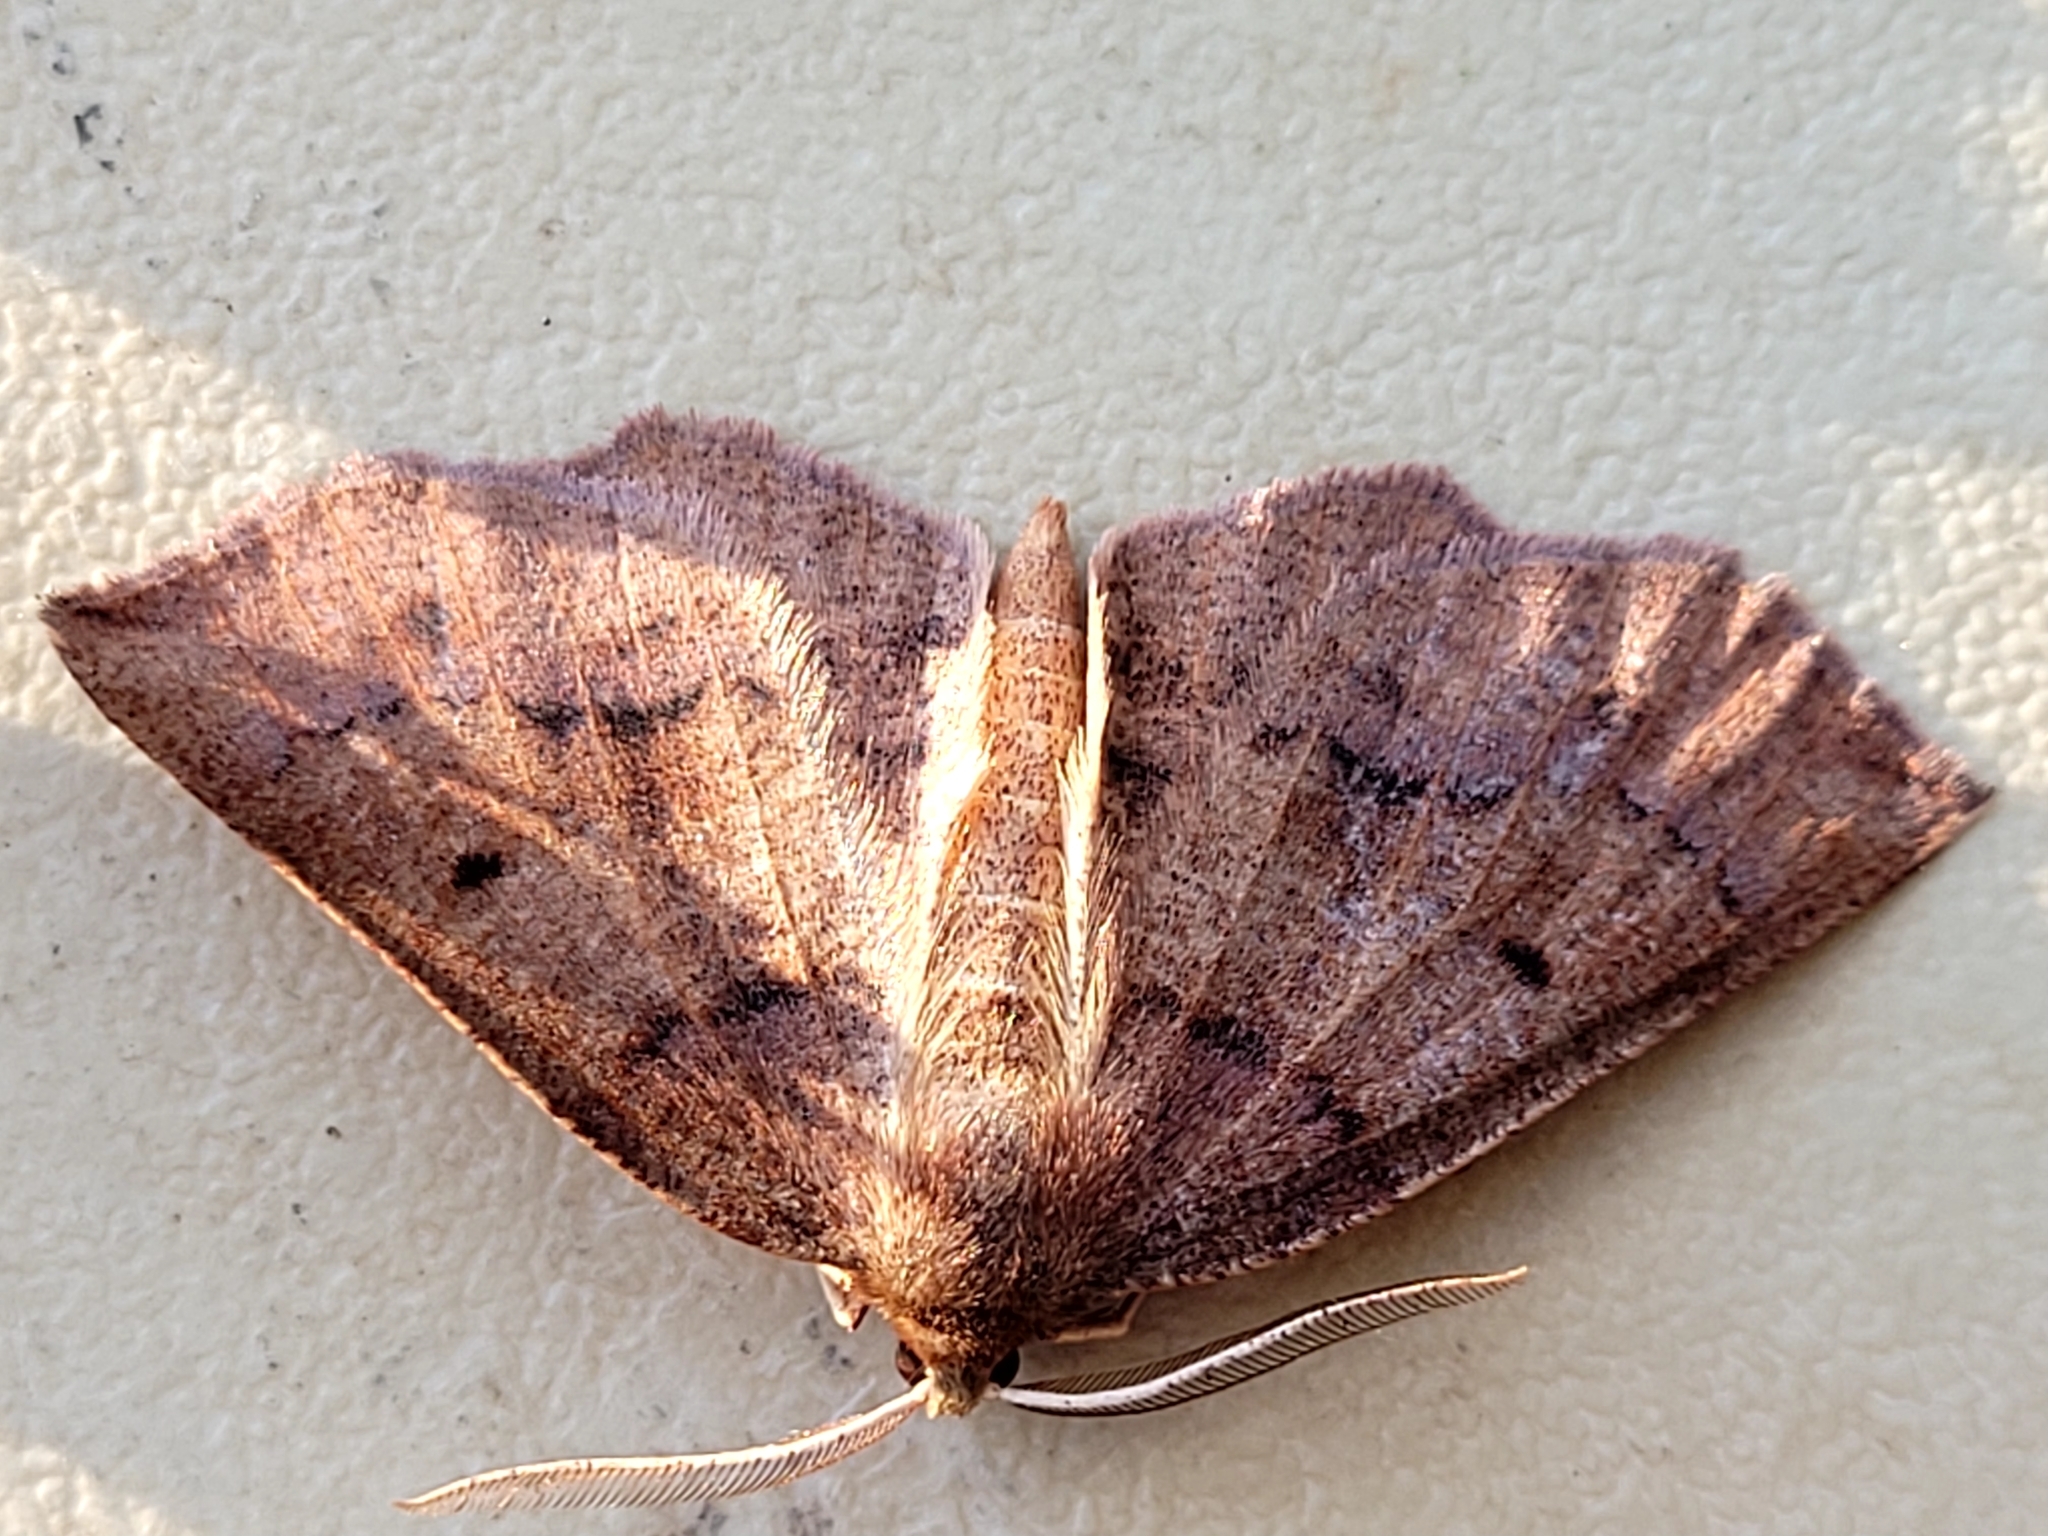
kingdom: Animalia
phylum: Arthropoda
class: Insecta
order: Lepidoptera
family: Geometridae
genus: Metarranthis
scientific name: Metarranthis duaria
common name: Ruddy metarranthis moth
